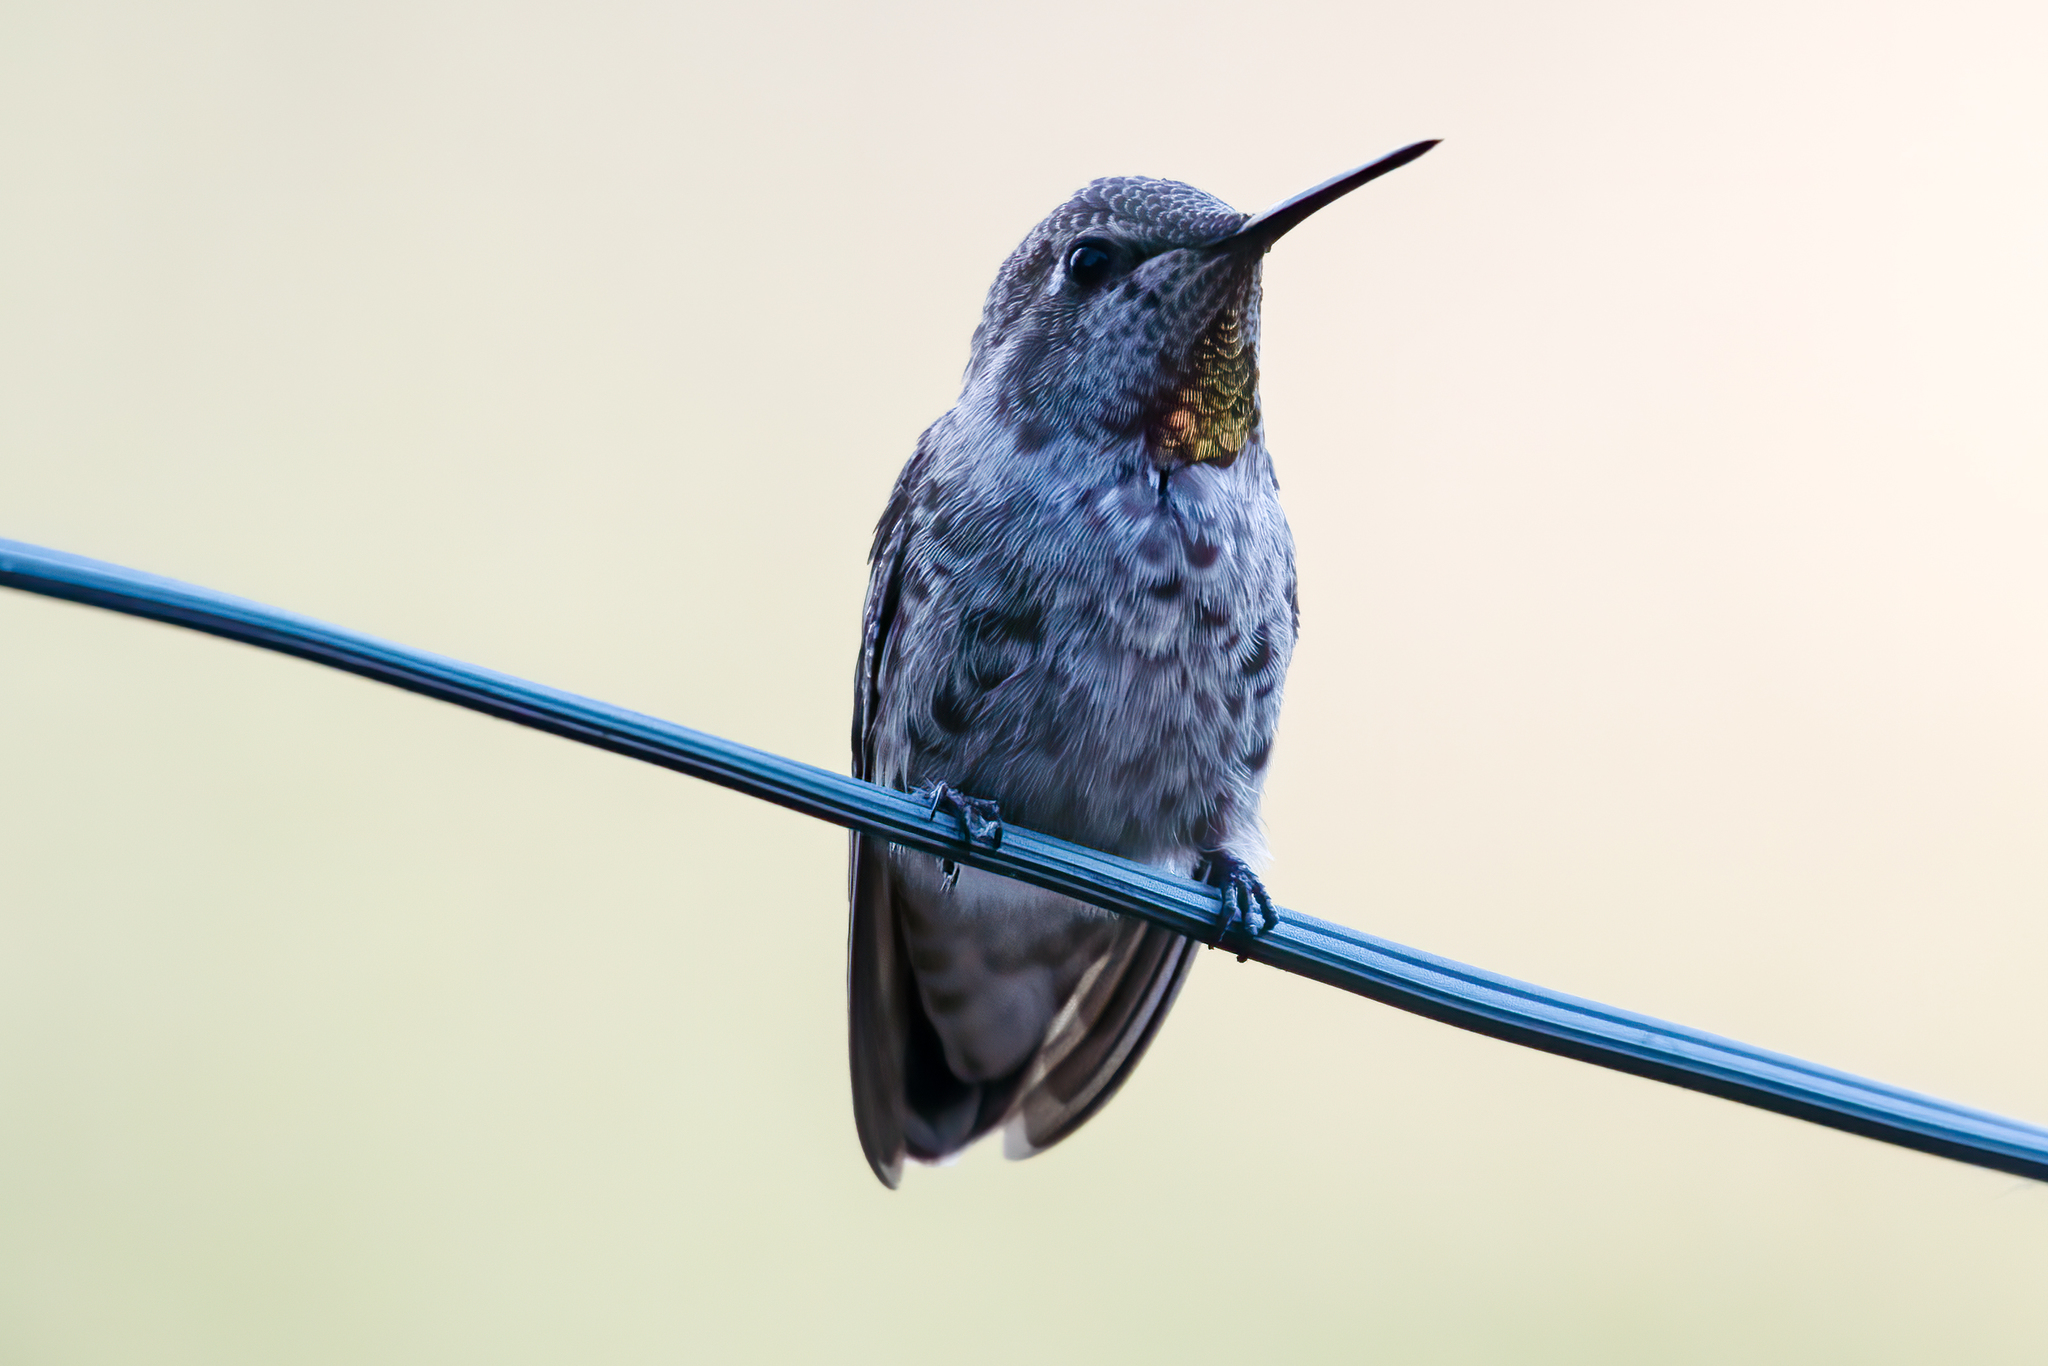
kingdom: Animalia
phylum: Chordata
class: Aves
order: Apodiformes
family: Trochilidae
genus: Calypte
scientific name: Calypte anna
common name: Anna's hummingbird
